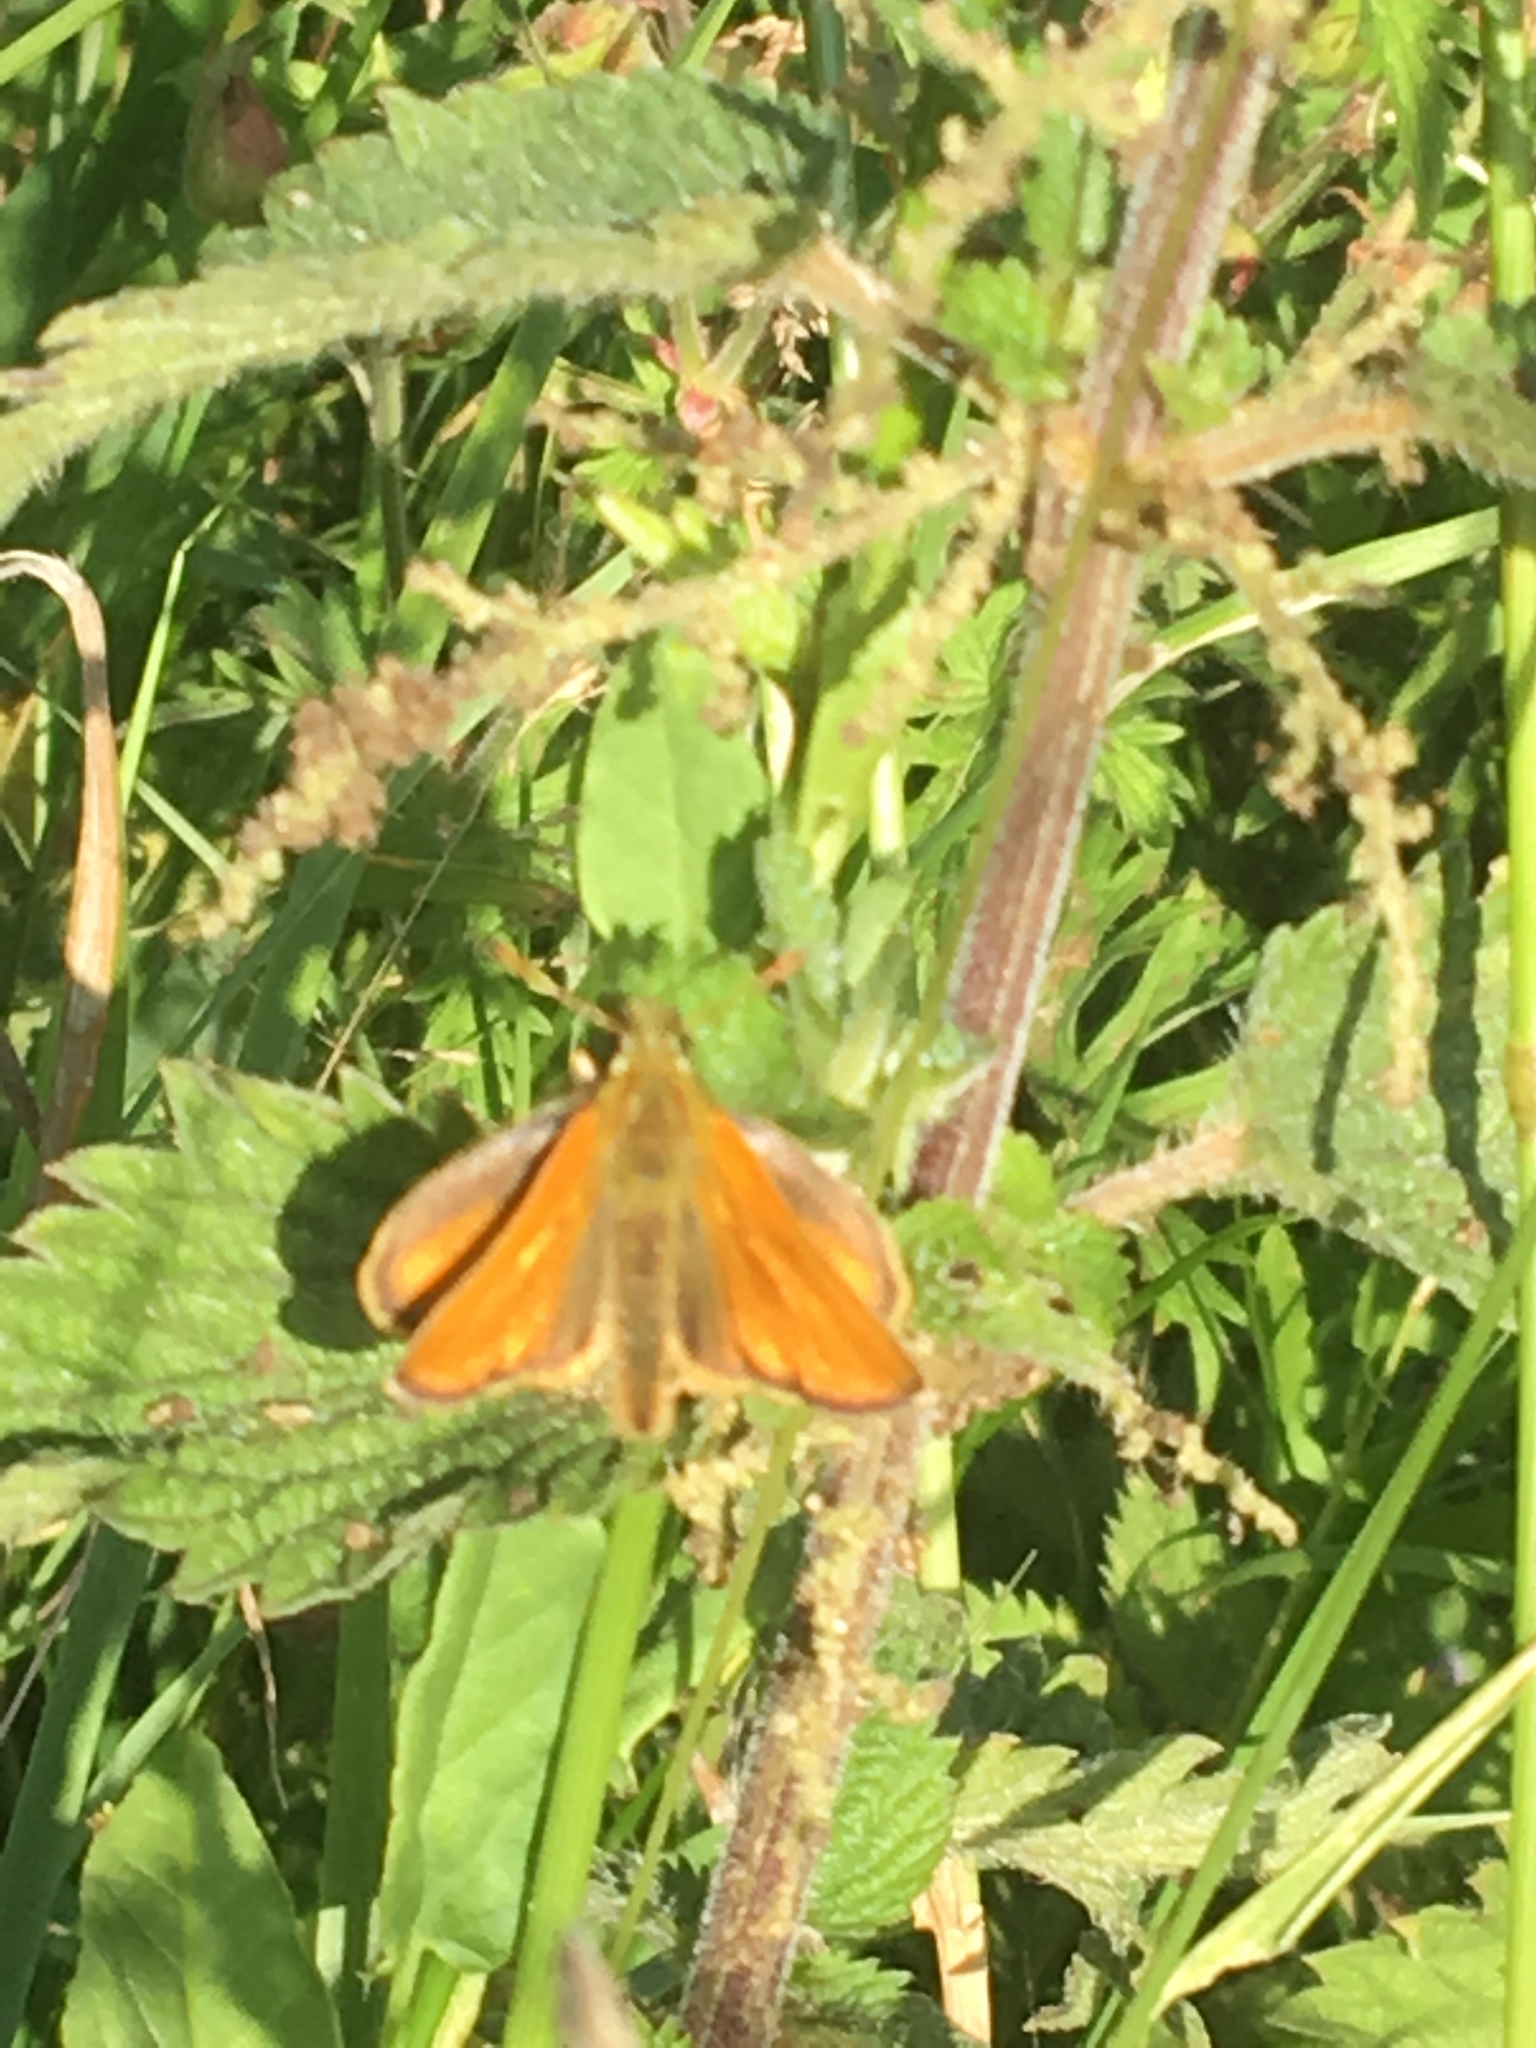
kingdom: Animalia
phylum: Arthropoda
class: Insecta
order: Lepidoptera
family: Hesperiidae
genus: Thymelicus
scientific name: Thymelicus sylvestris
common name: Small skipper
